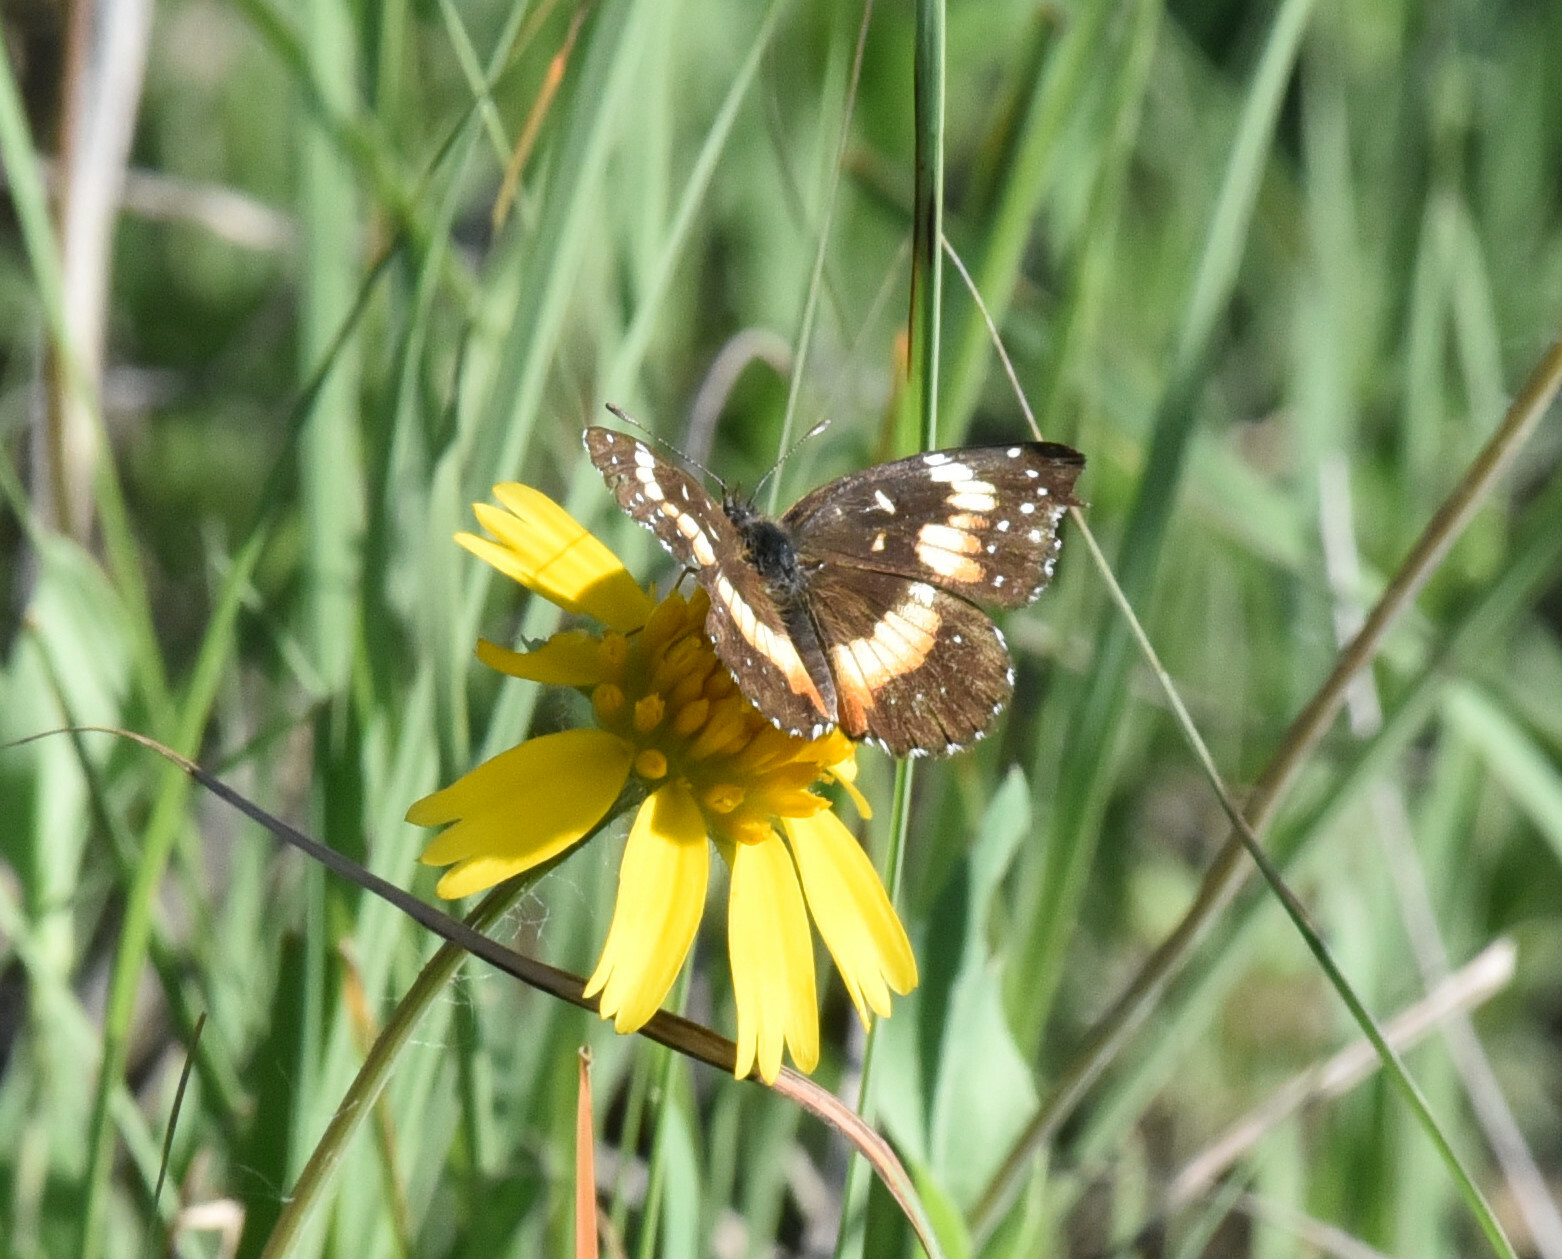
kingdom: Animalia
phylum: Arthropoda
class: Insecta
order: Lepidoptera
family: Nymphalidae
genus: Chlosyne
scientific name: Chlosyne lacinia
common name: Bordered patch
